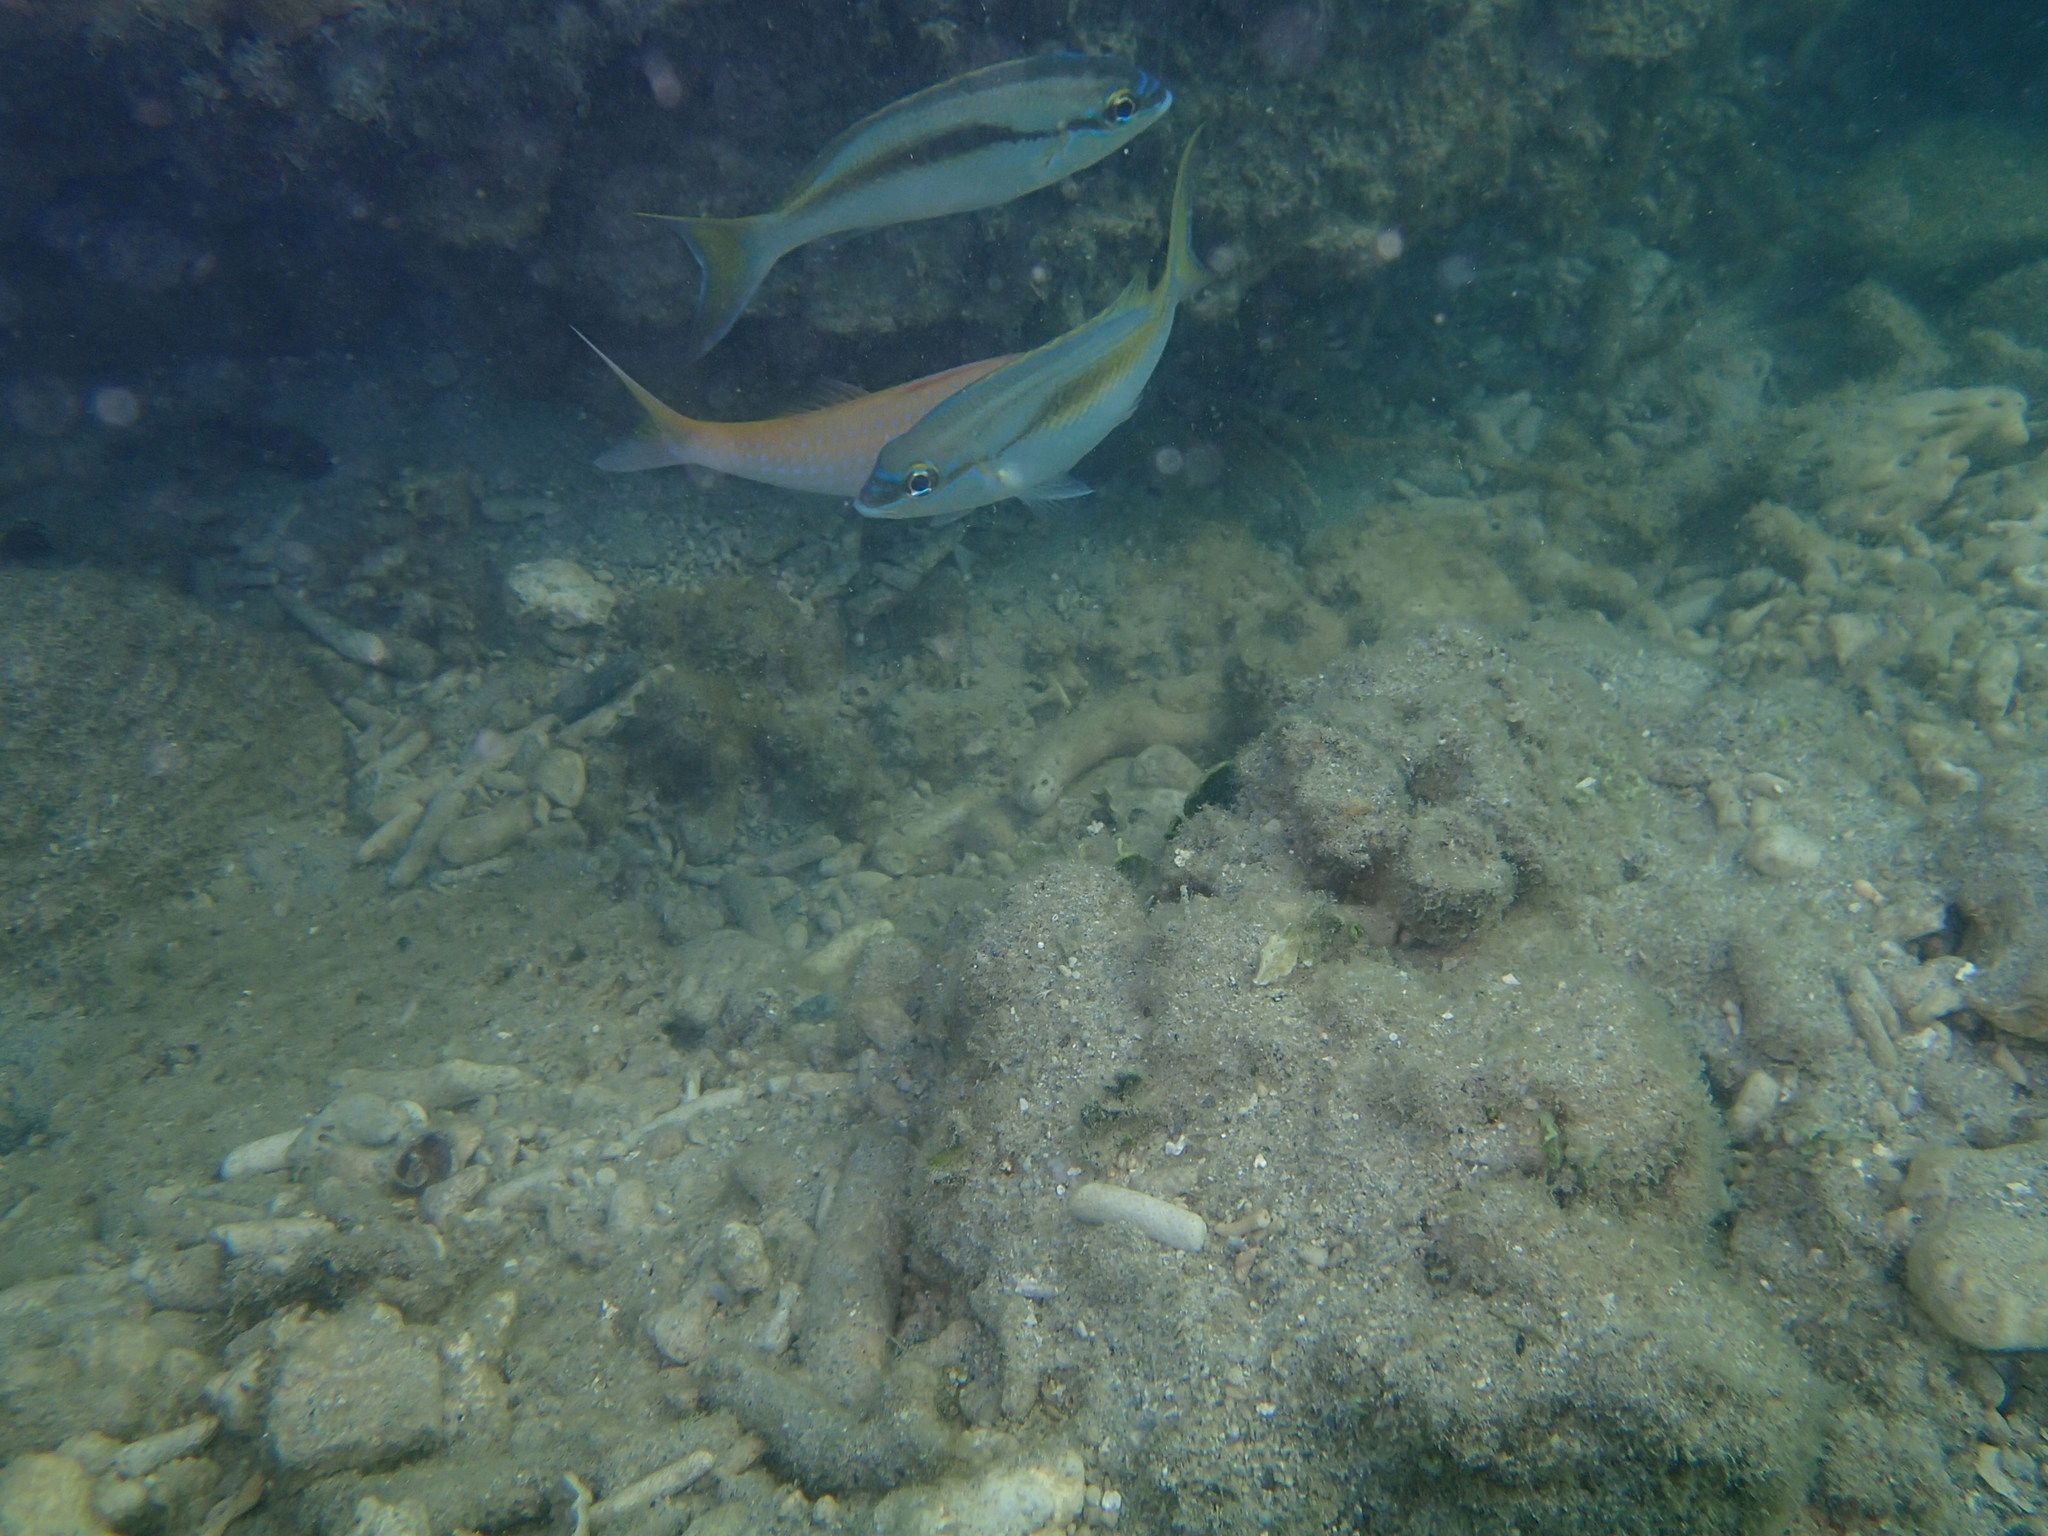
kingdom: Animalia
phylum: Chordata
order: Perciformes
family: Nemipteridae
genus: Scolopsis
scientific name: Scolopsis monogramma
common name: Monogrammed monocle bream
